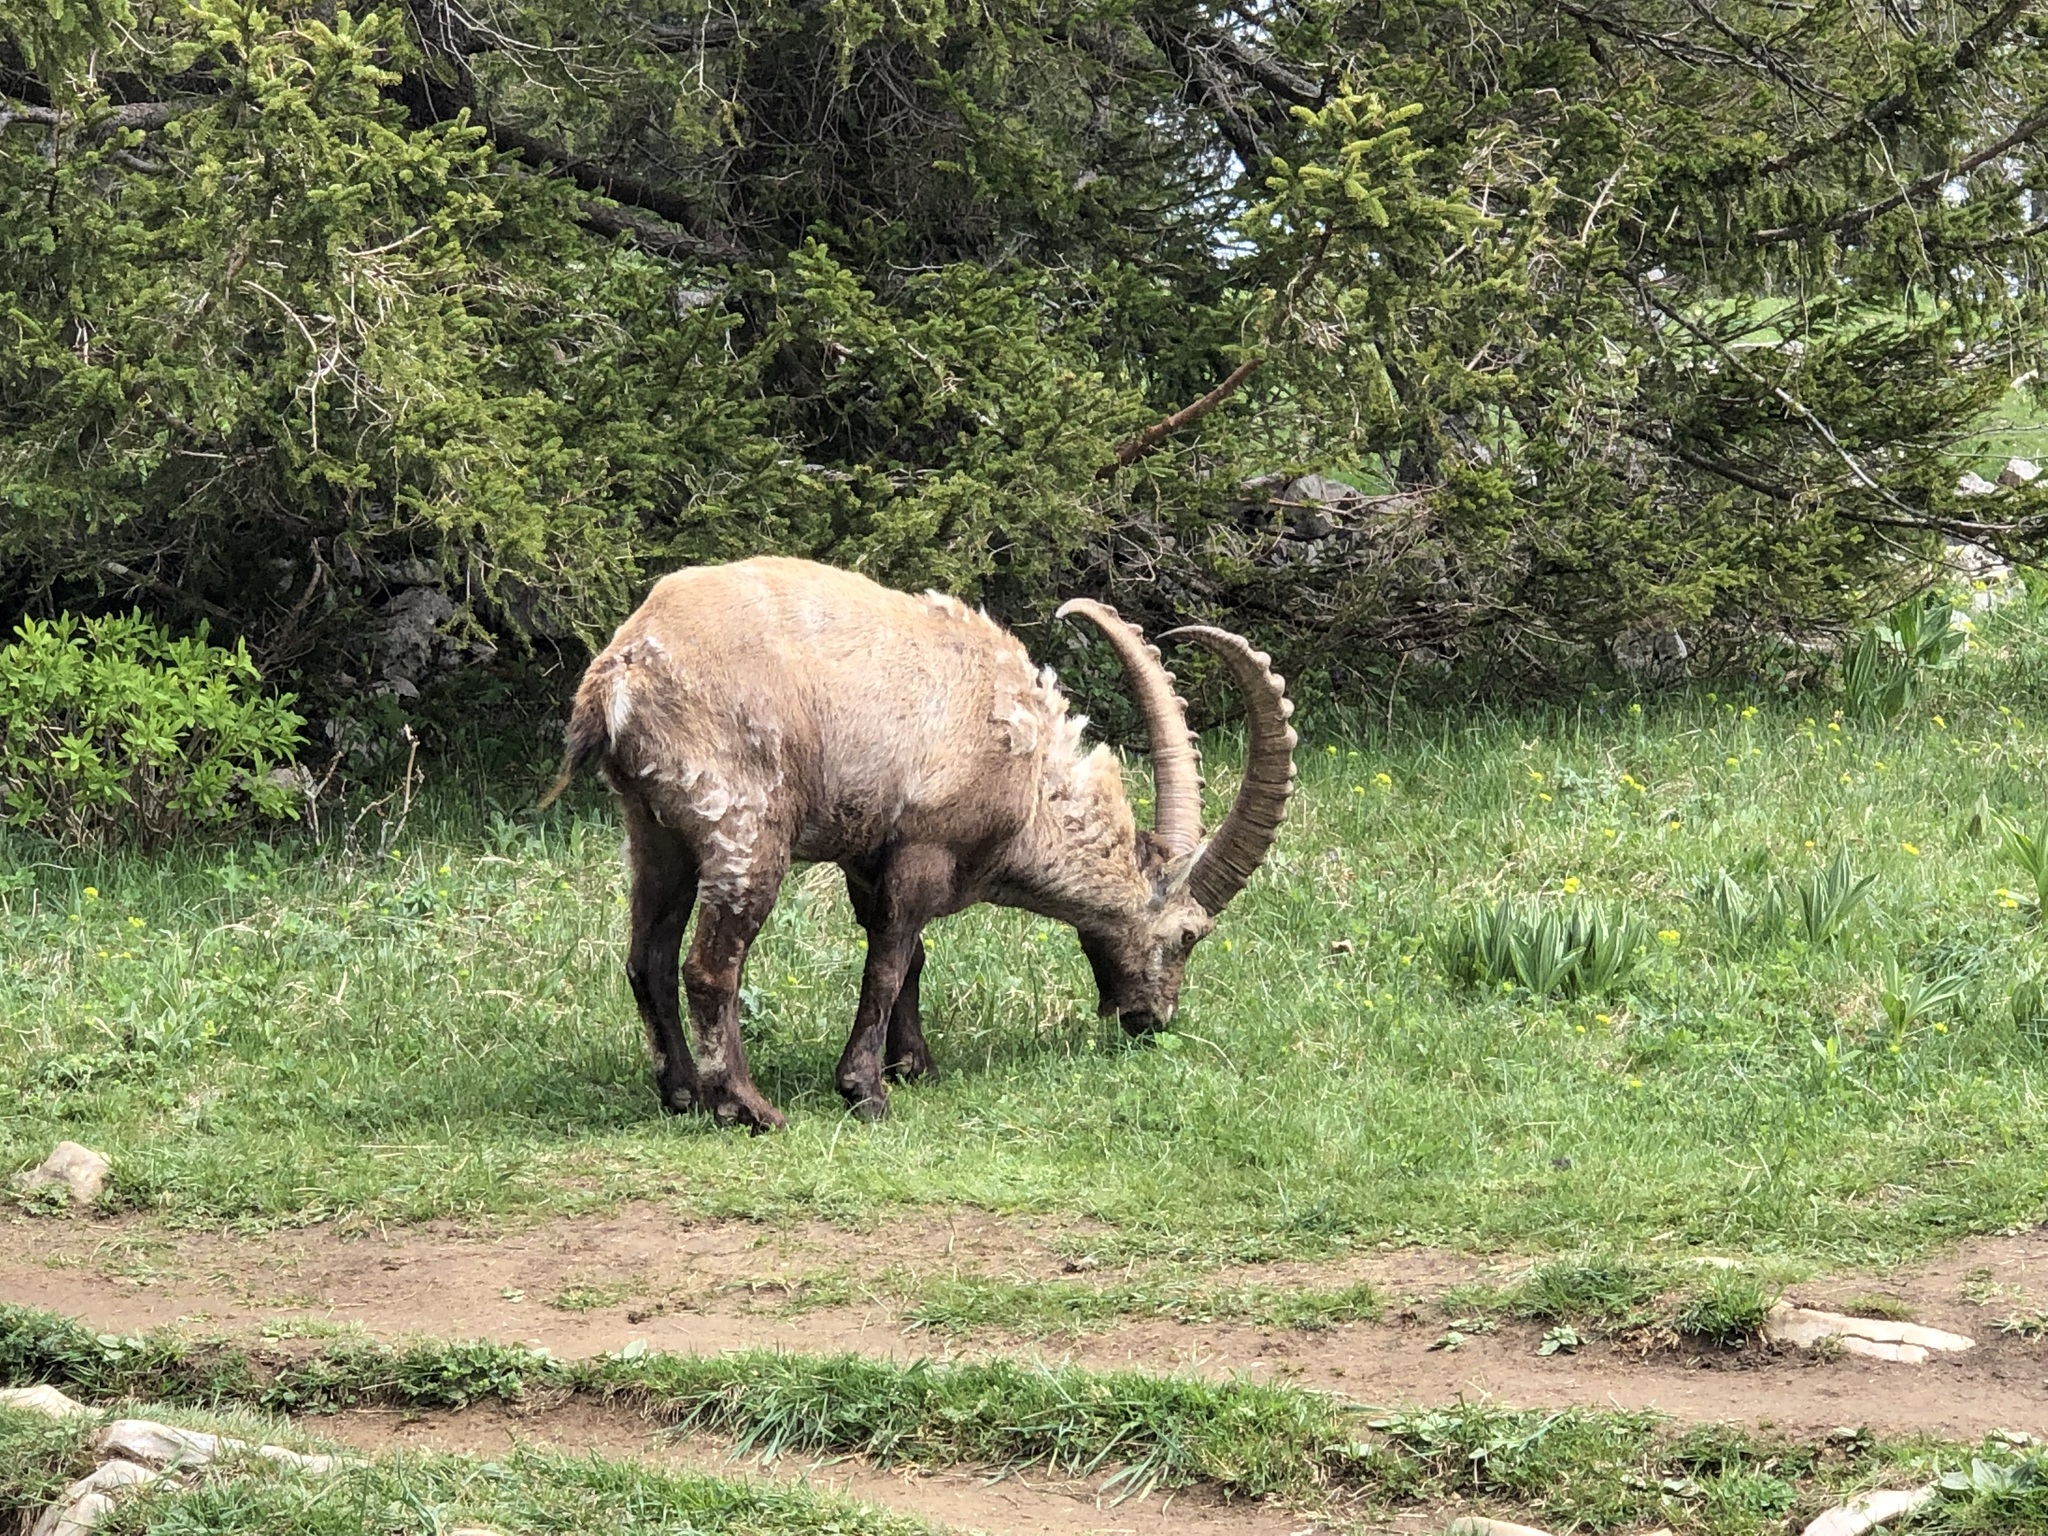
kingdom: Animalia
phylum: Chordata
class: Mammalia
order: Artiodactyla
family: Bovidae
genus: Capra
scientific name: Capra ibex
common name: Alpine ibex
